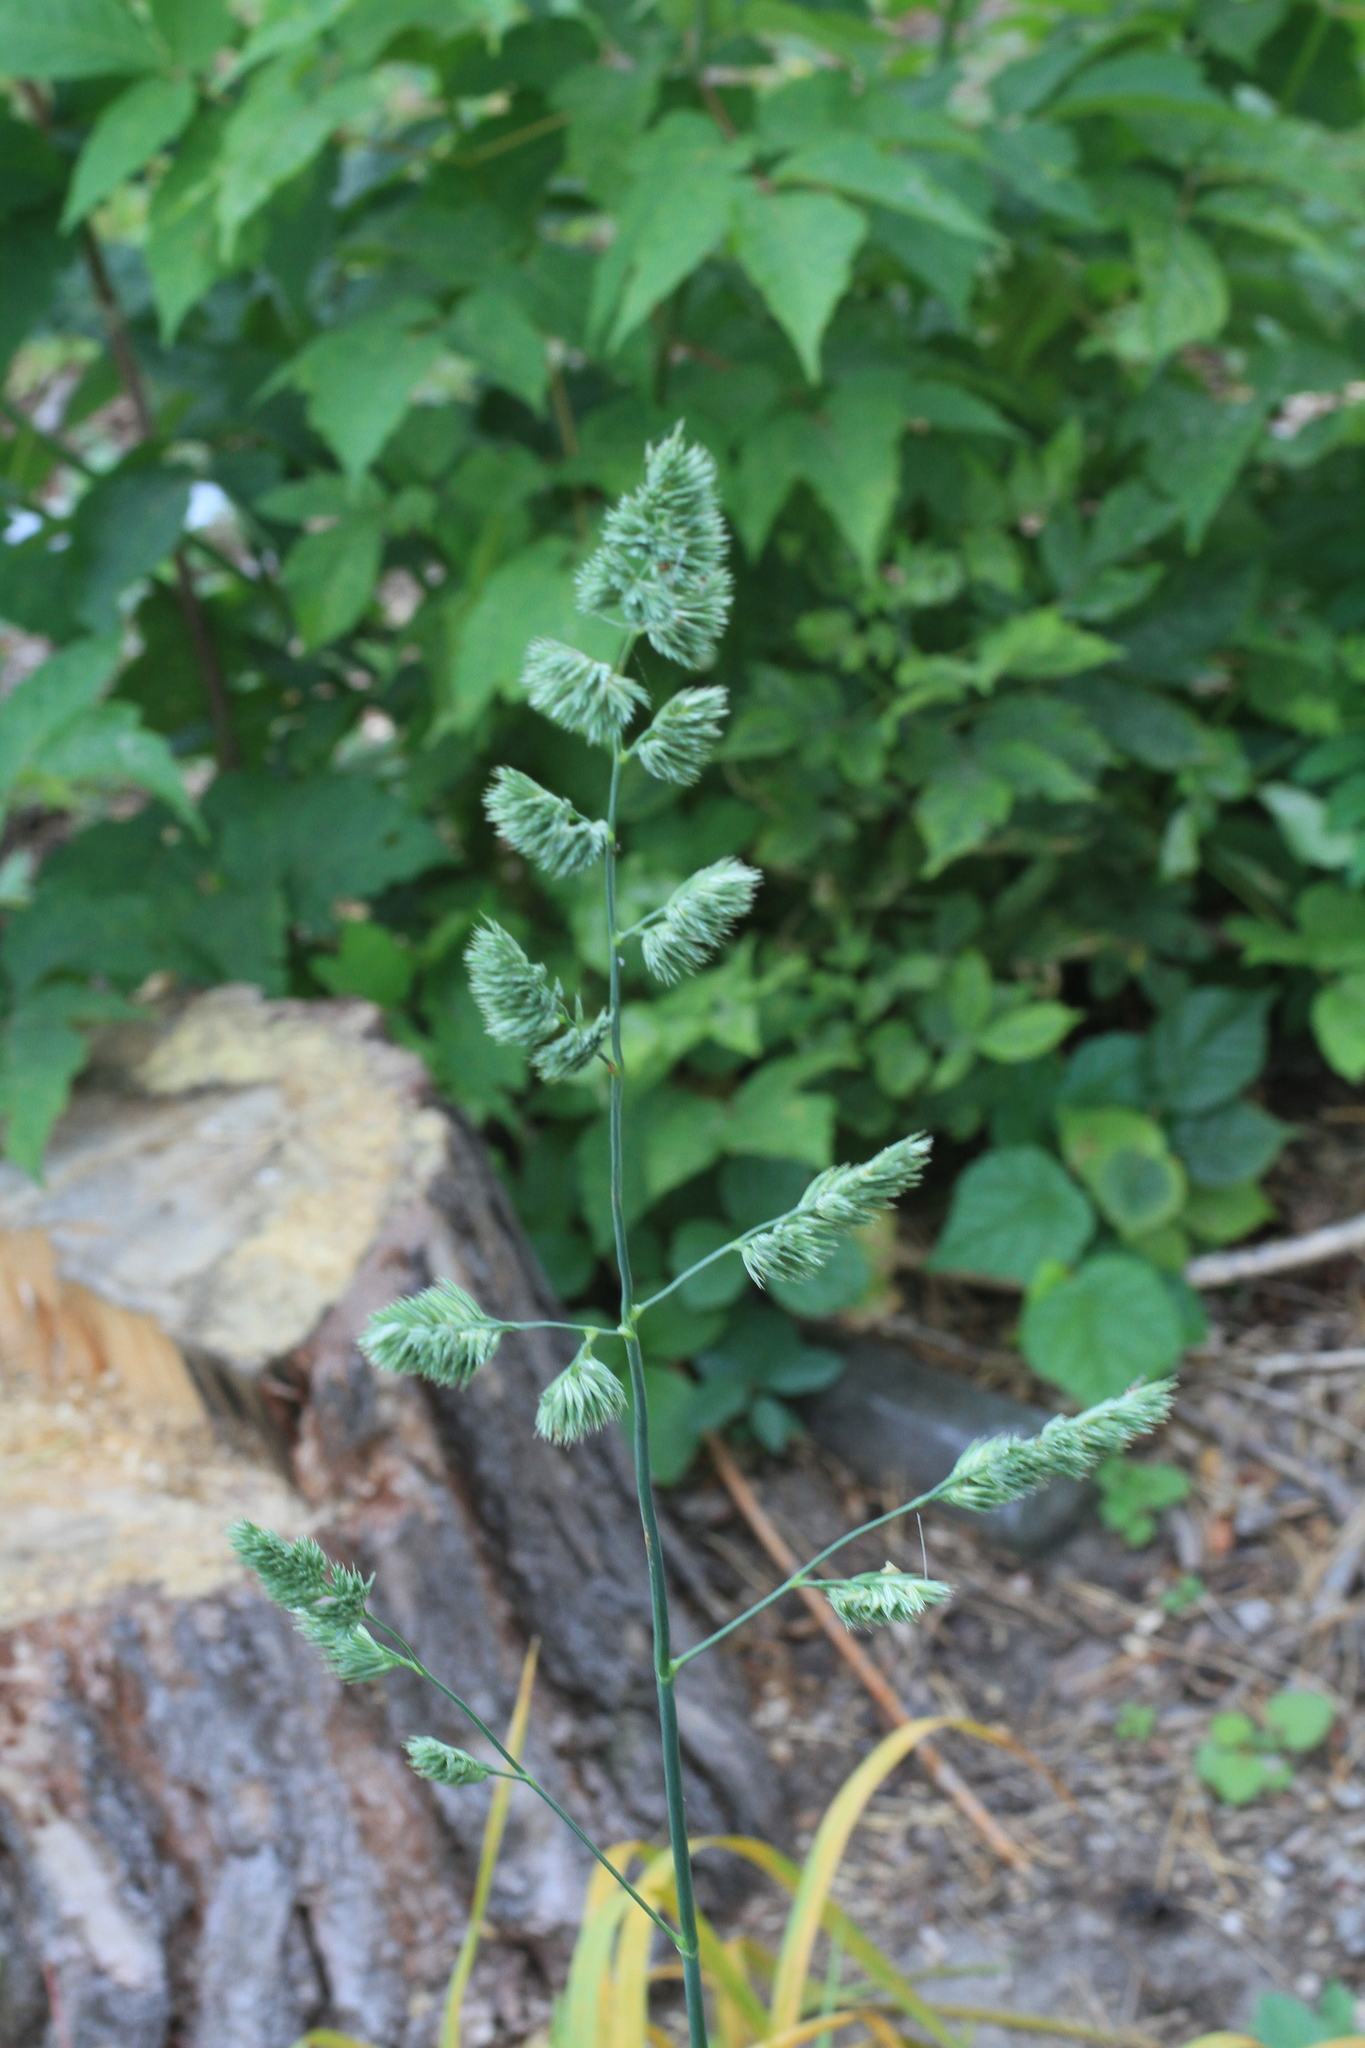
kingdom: Plantae
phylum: Tracheophyta
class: Liliopsida
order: Poales
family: Poaceae
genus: Dactylis
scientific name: Dactylis glomerata
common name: Orchardgrass
